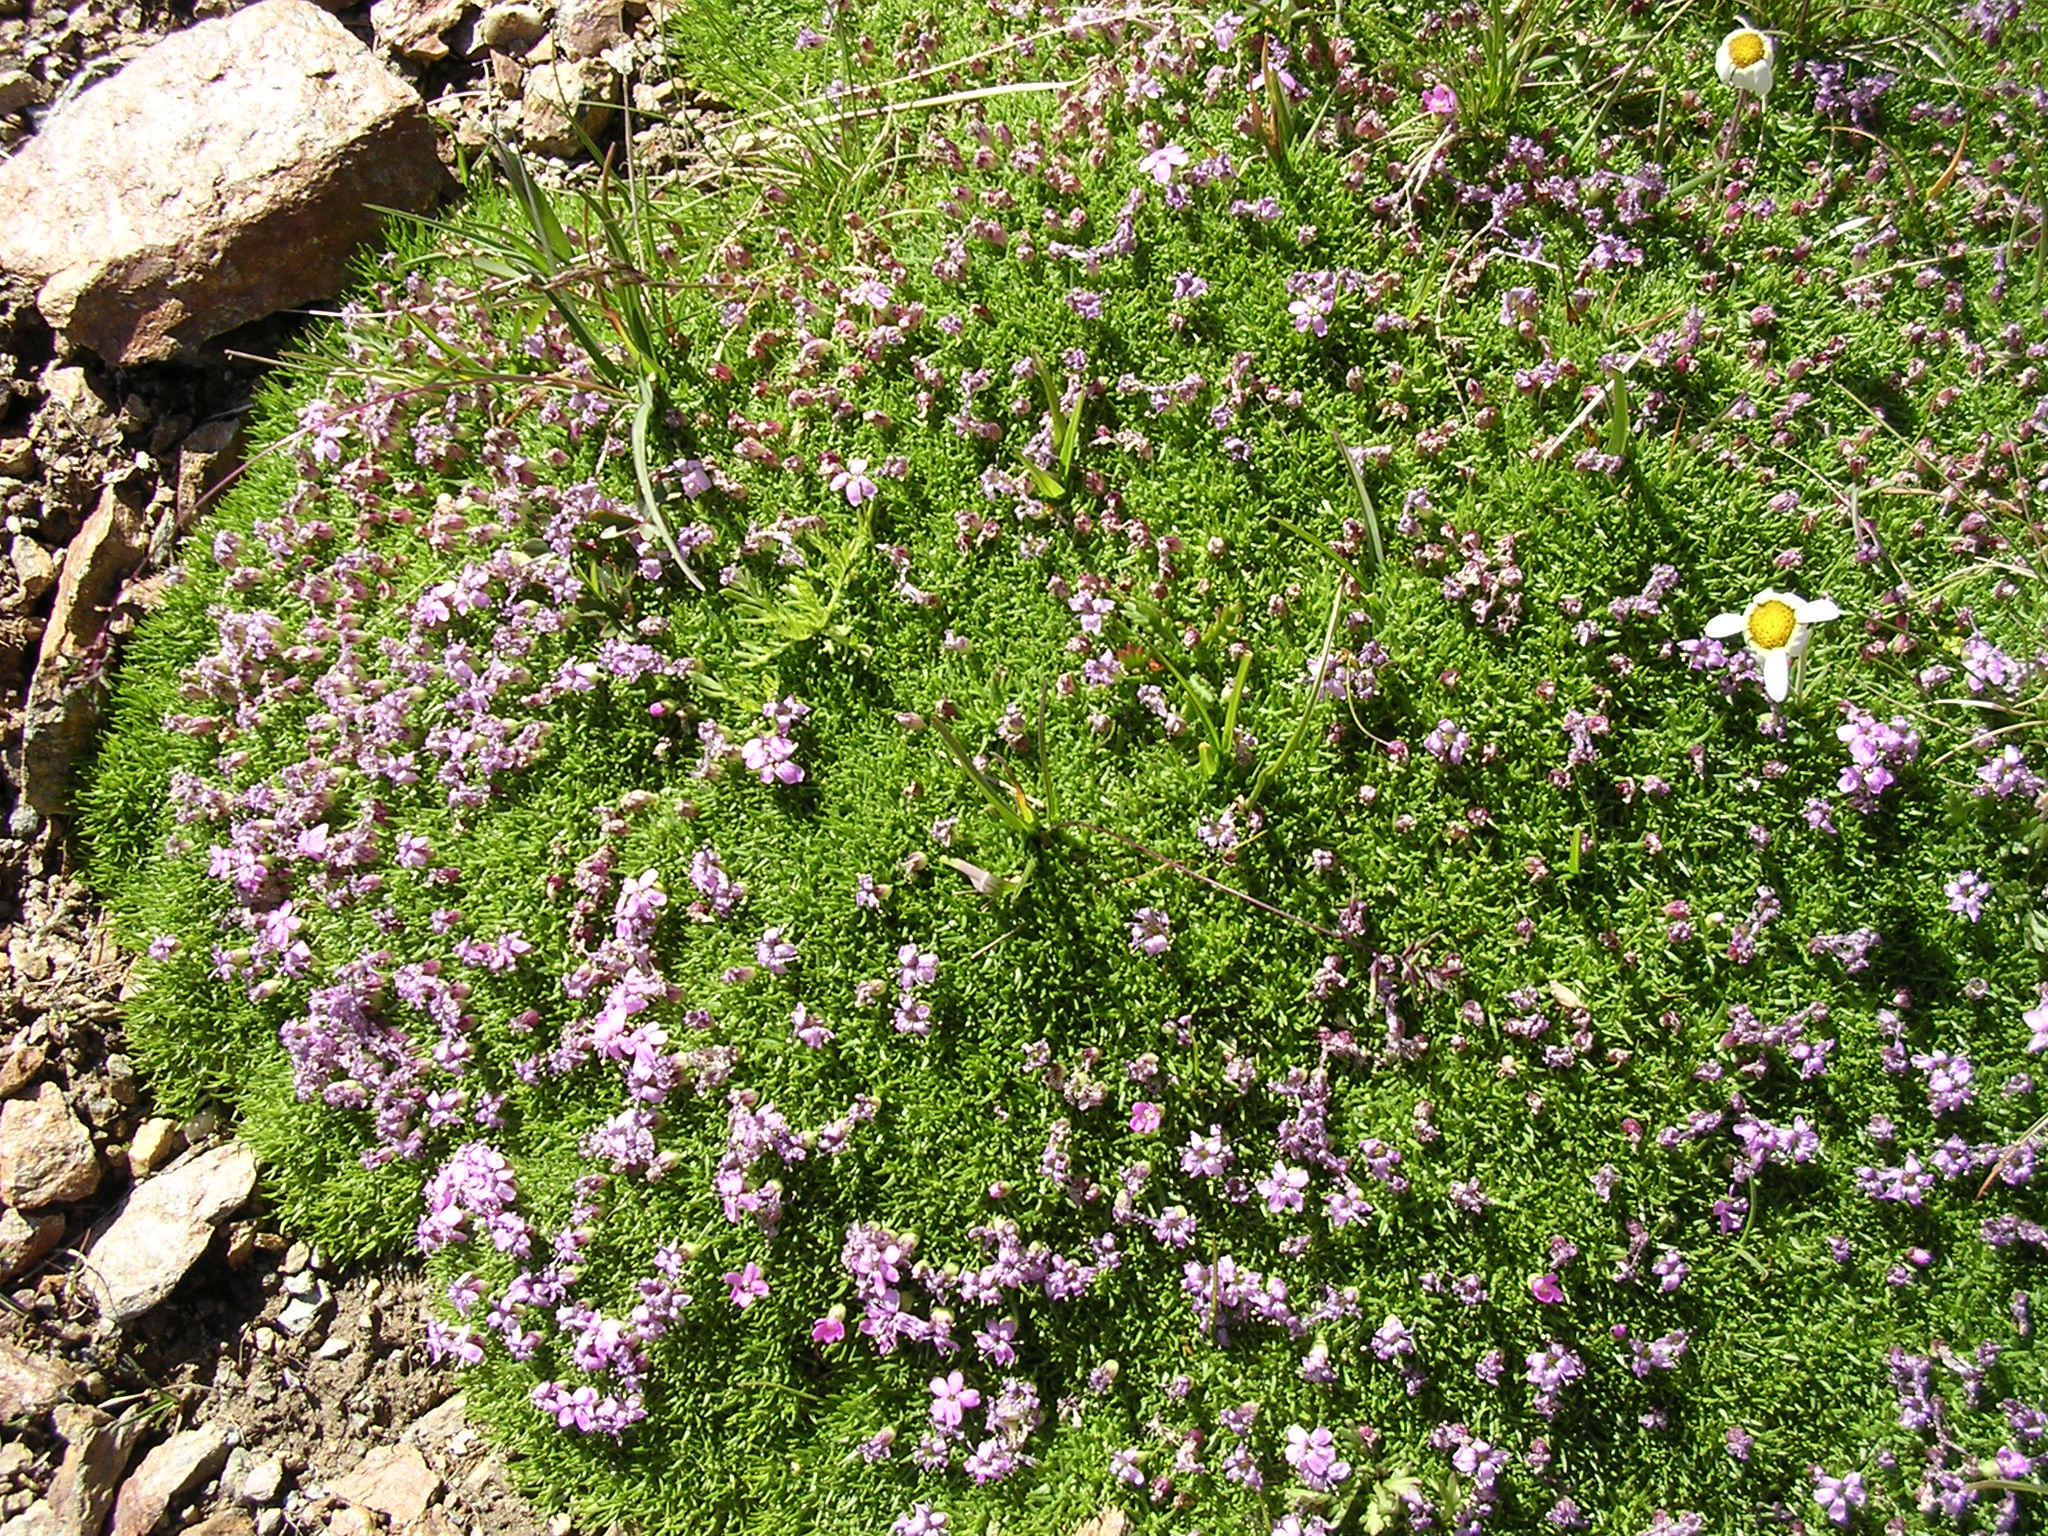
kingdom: Plantae
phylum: Tracheophyta
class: Magnoliopsida
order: Caryophyllales
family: Caryophyllaceae
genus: Silene
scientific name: Silene acaulis
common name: Moss campion
